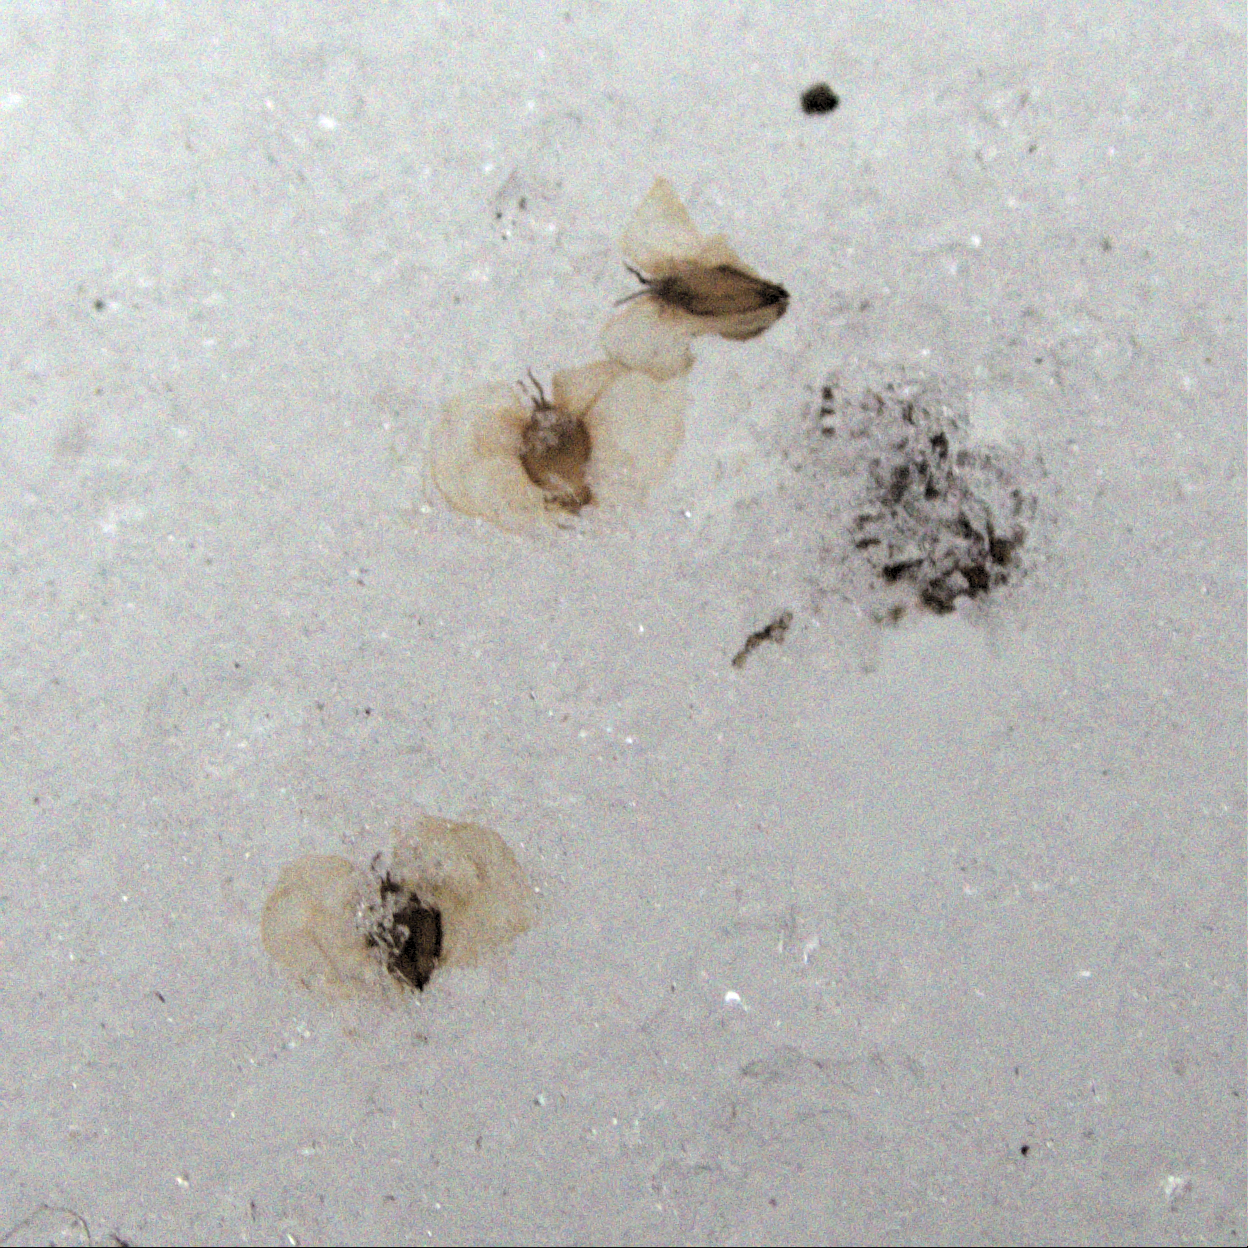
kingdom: Plantae
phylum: Tracheophyta
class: Magnoliopsida
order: Fagales
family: Betulaceae
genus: Betula
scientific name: Betula papyrifera
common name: Paper birch
